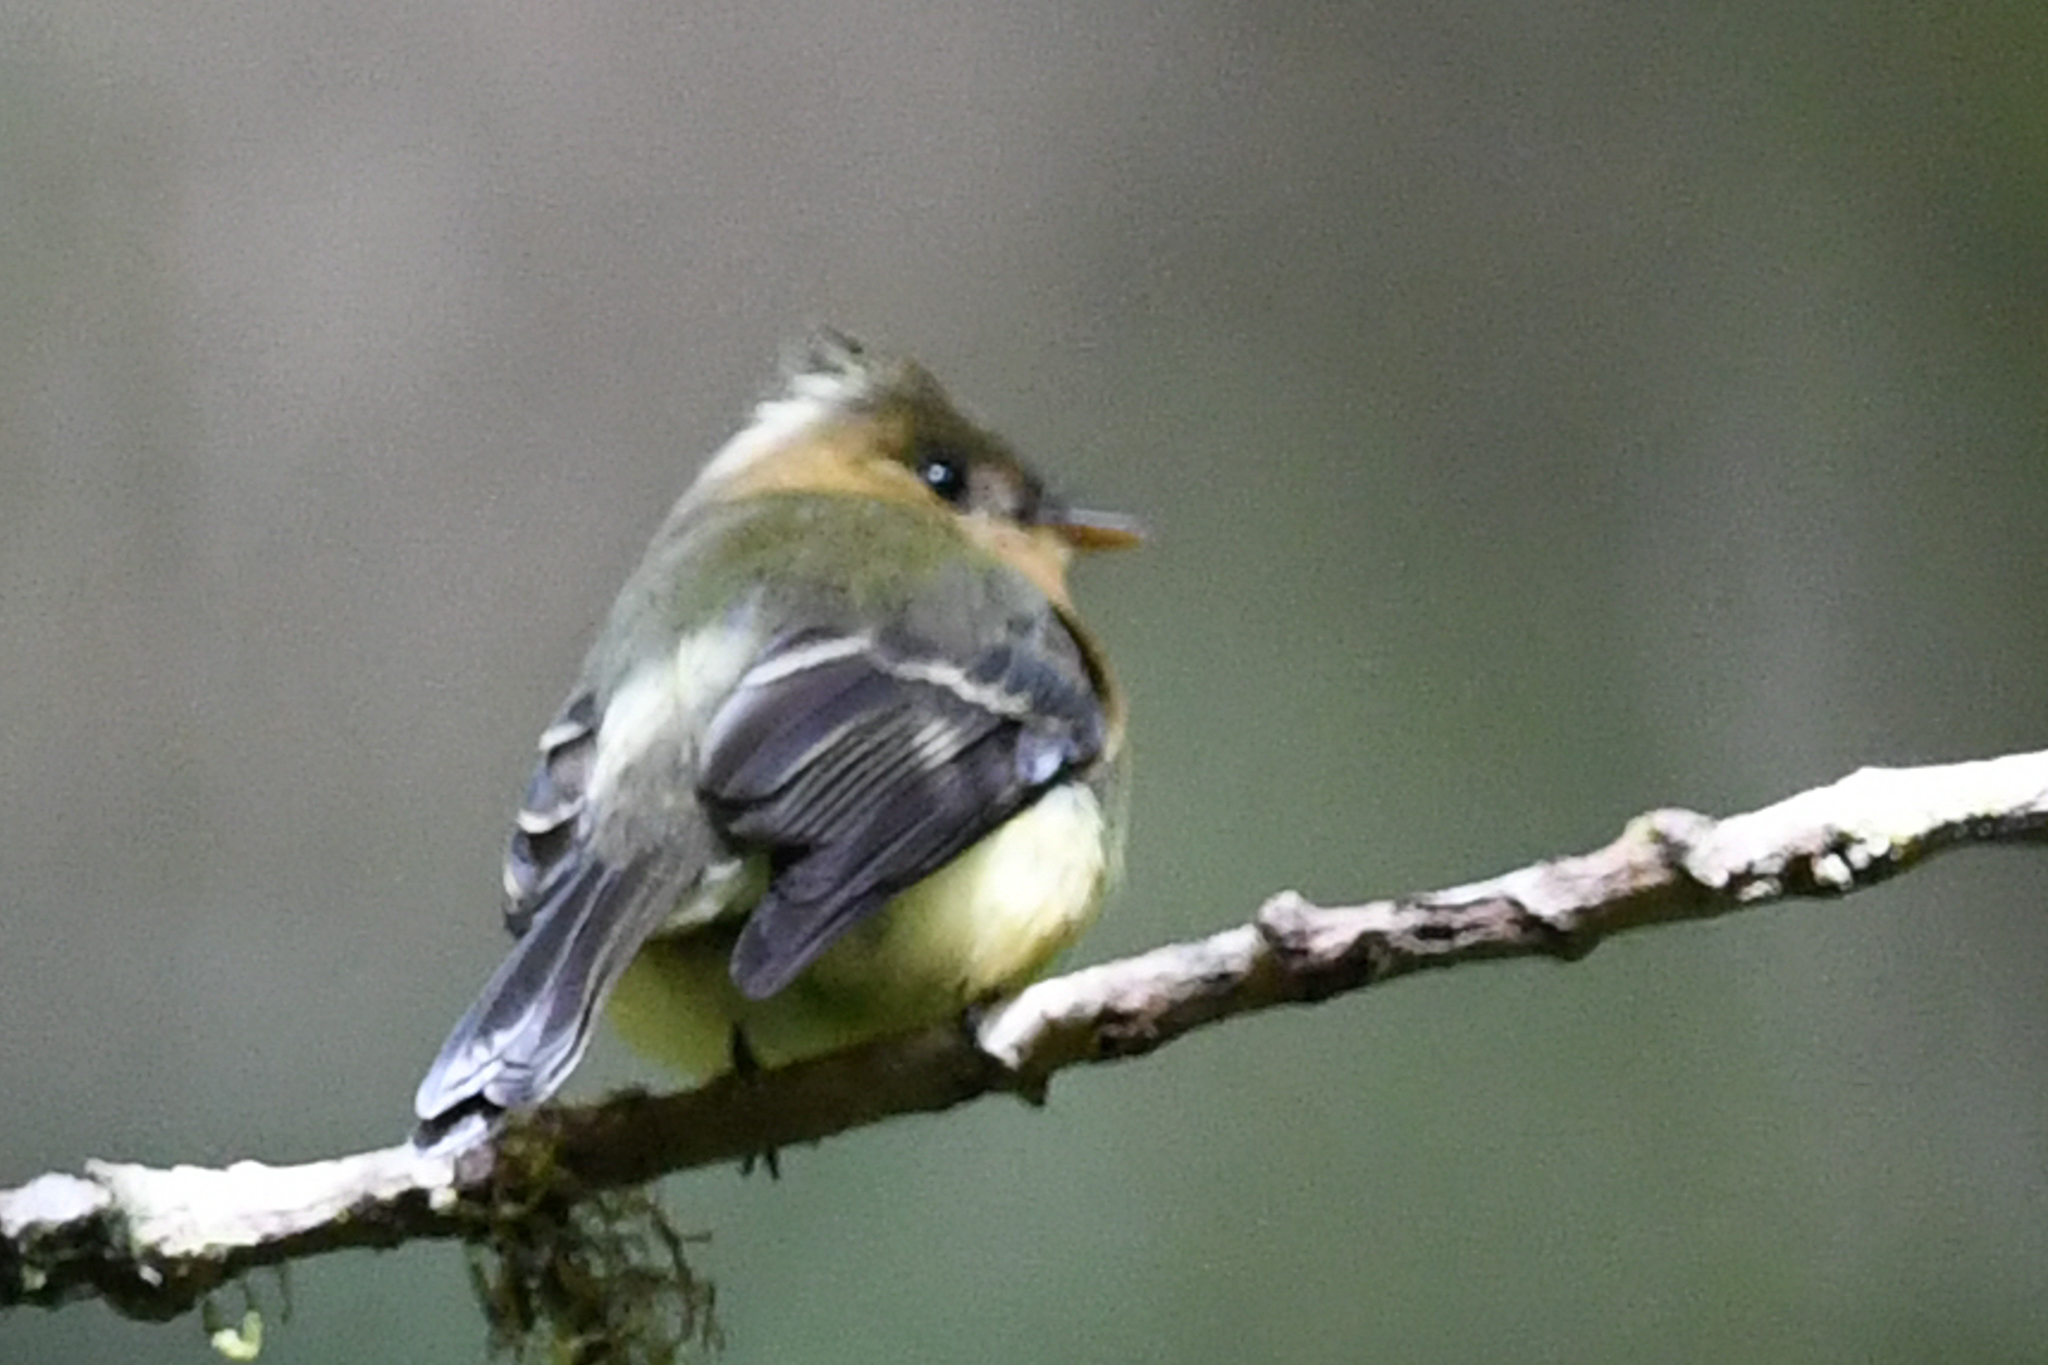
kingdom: Animalia
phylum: Chordata
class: Aves
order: Passeriformes
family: Tyrannidae
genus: Mitrephanes
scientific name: Mitrephanes phaeocercus
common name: Northern tufted flycatcher
